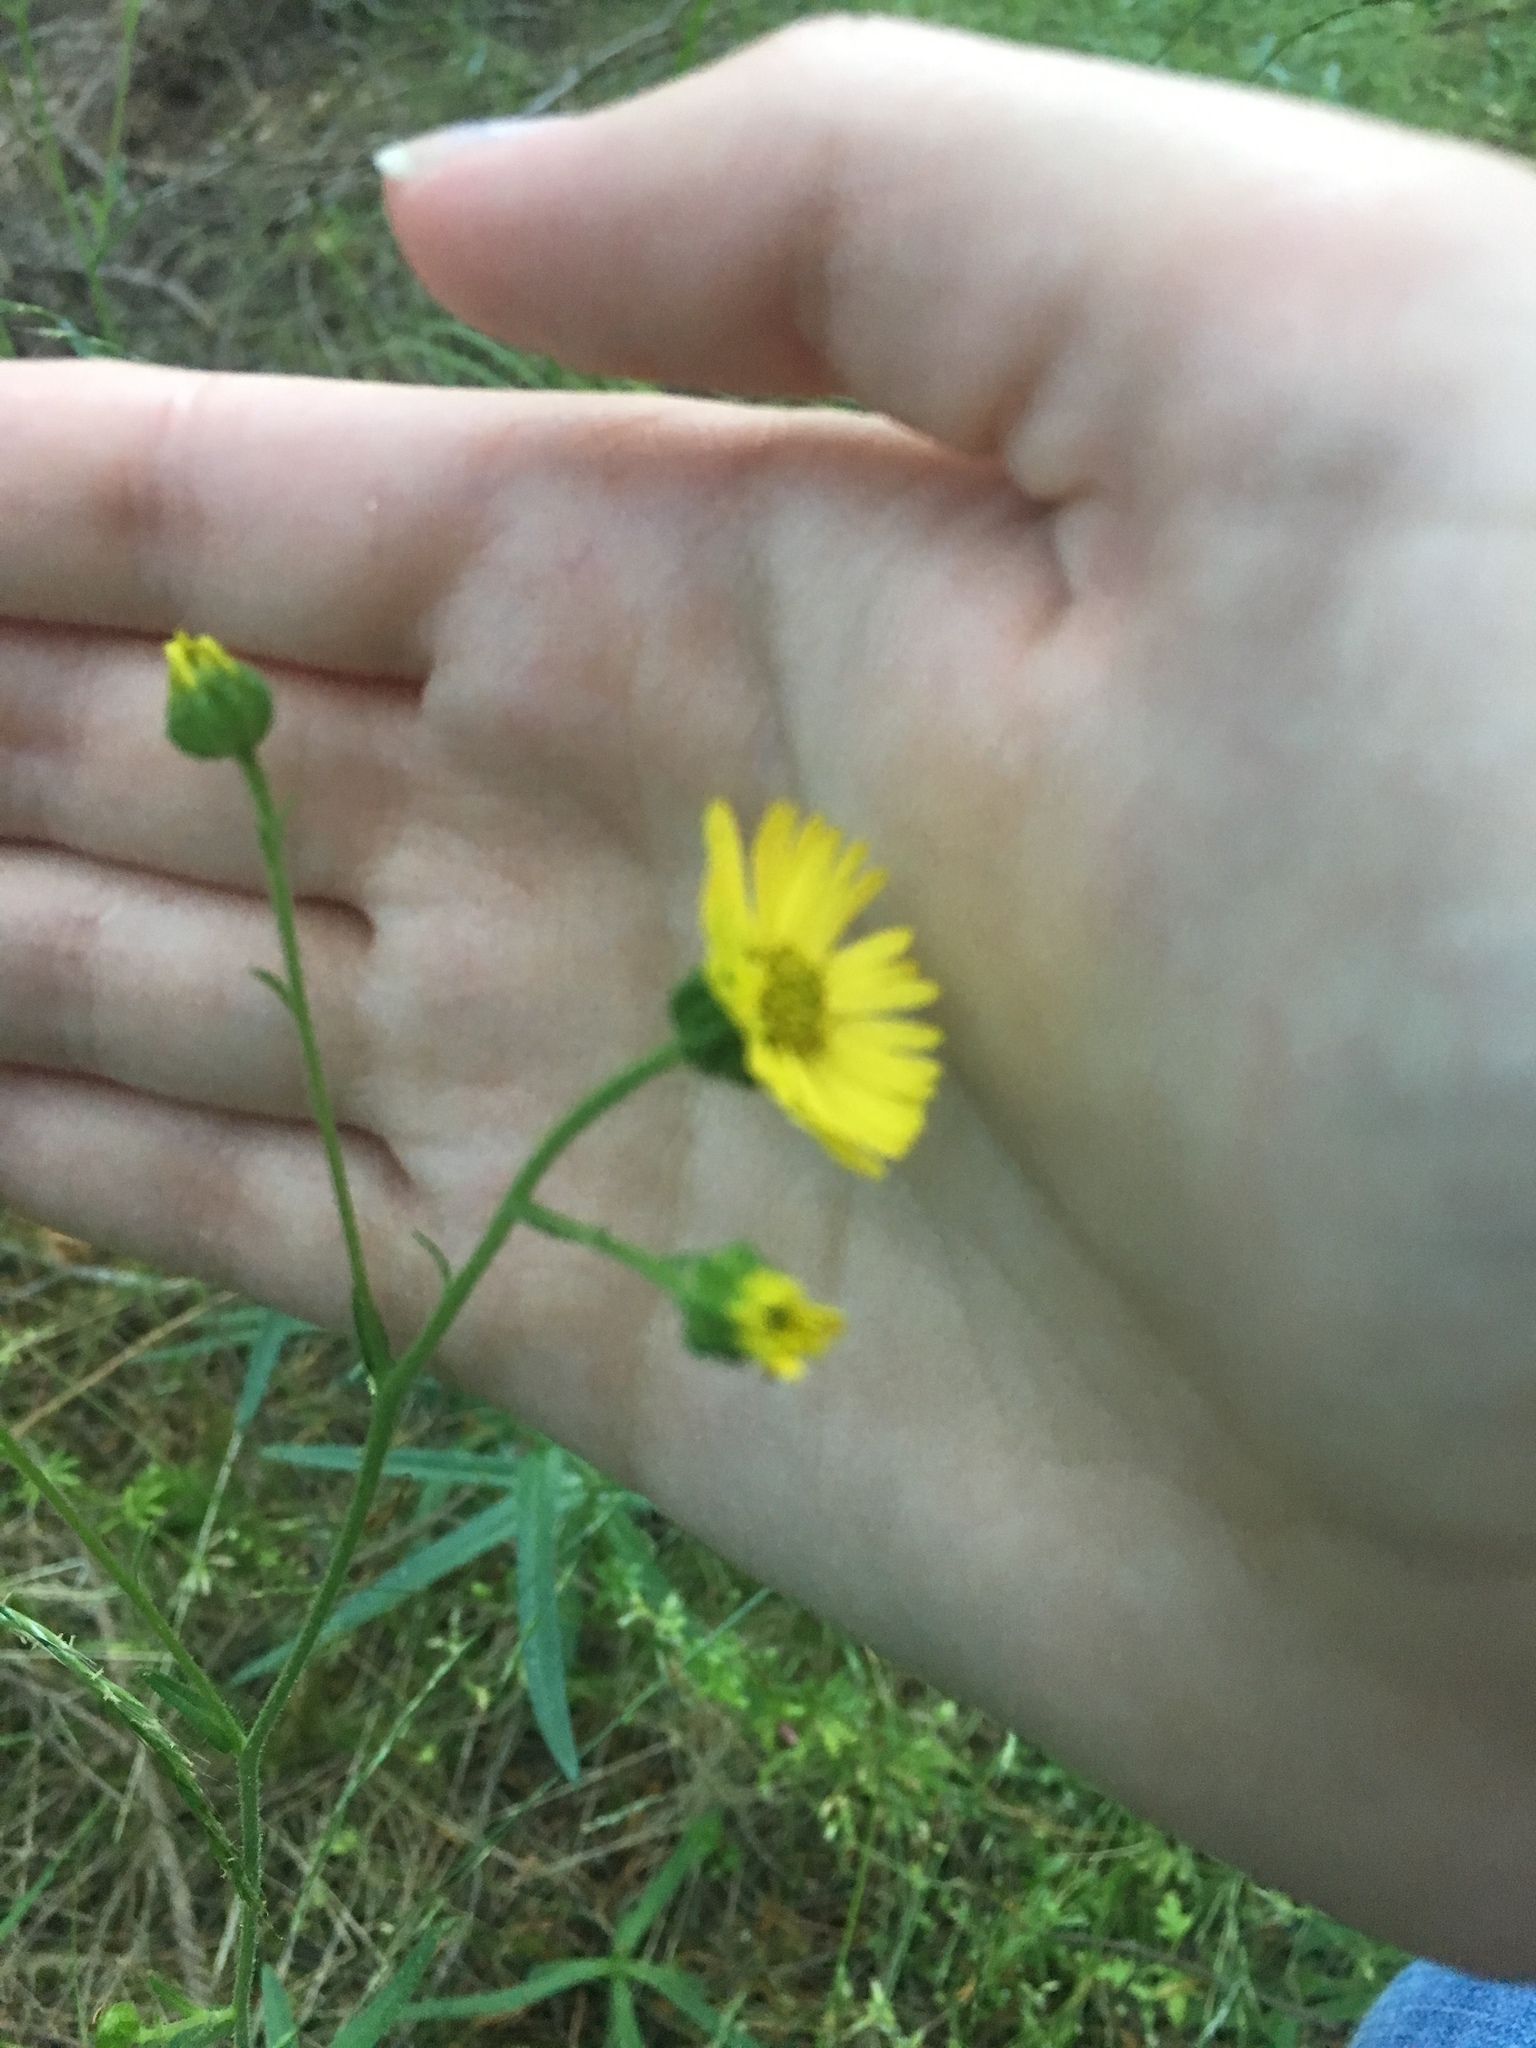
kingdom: Plantae
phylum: Tracheophyta
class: Magnoliopsida
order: Asterales
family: Asteraceae
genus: Anisocarpus
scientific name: Anisocarpus madioides
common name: Woodland madia
